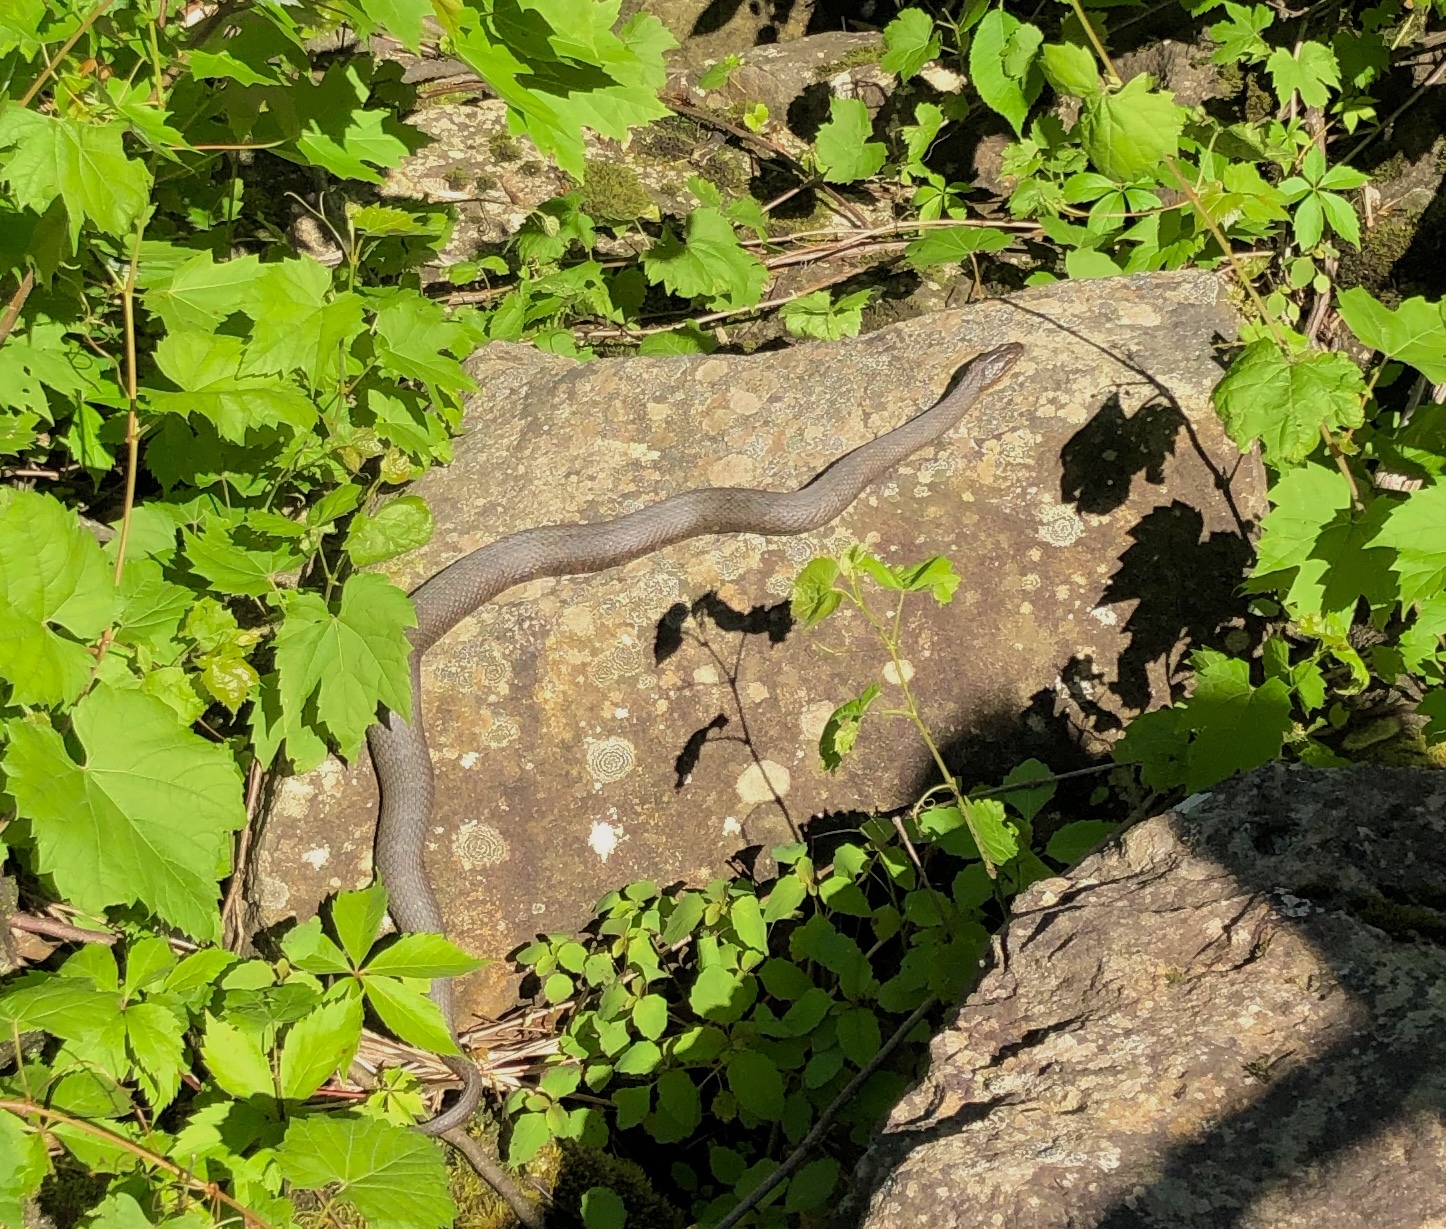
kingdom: Animalia
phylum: Chordata
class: Squamata
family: Colubridae
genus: Nerodia
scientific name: Nerodia sipedon
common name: Northern water snake
